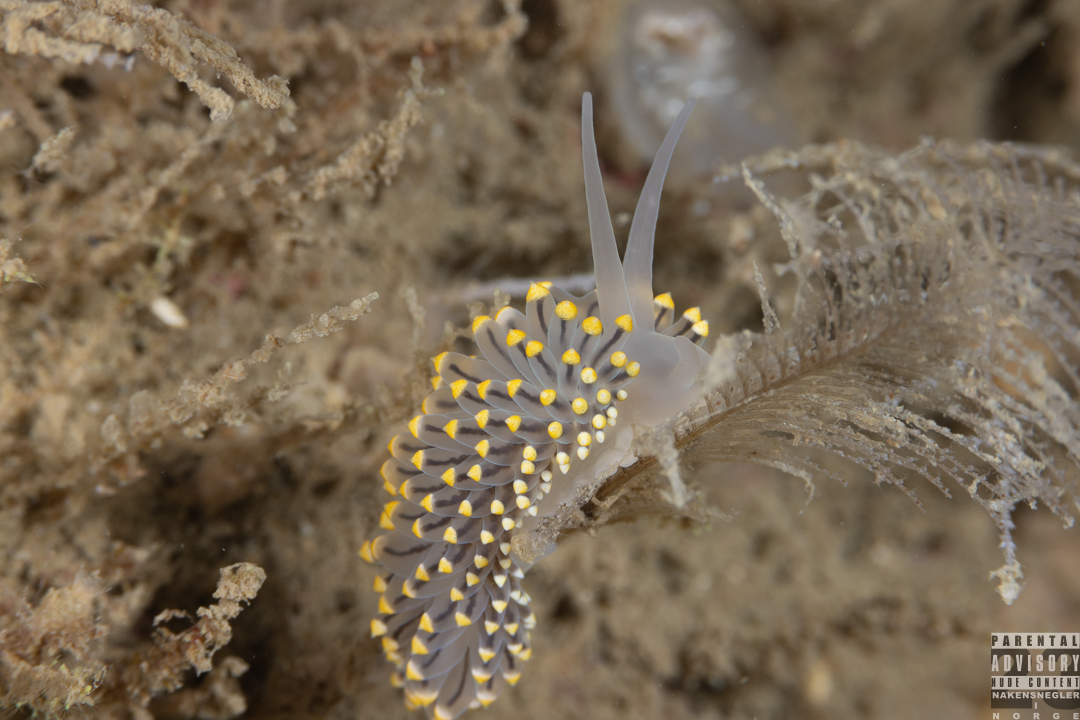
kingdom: Animalia
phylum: Mollusca
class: Gastropoda
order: Nudibranchia
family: Eubranchidae
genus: Eubranchus
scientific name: Eubranchus tricolor
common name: Painted balloon aeolis
